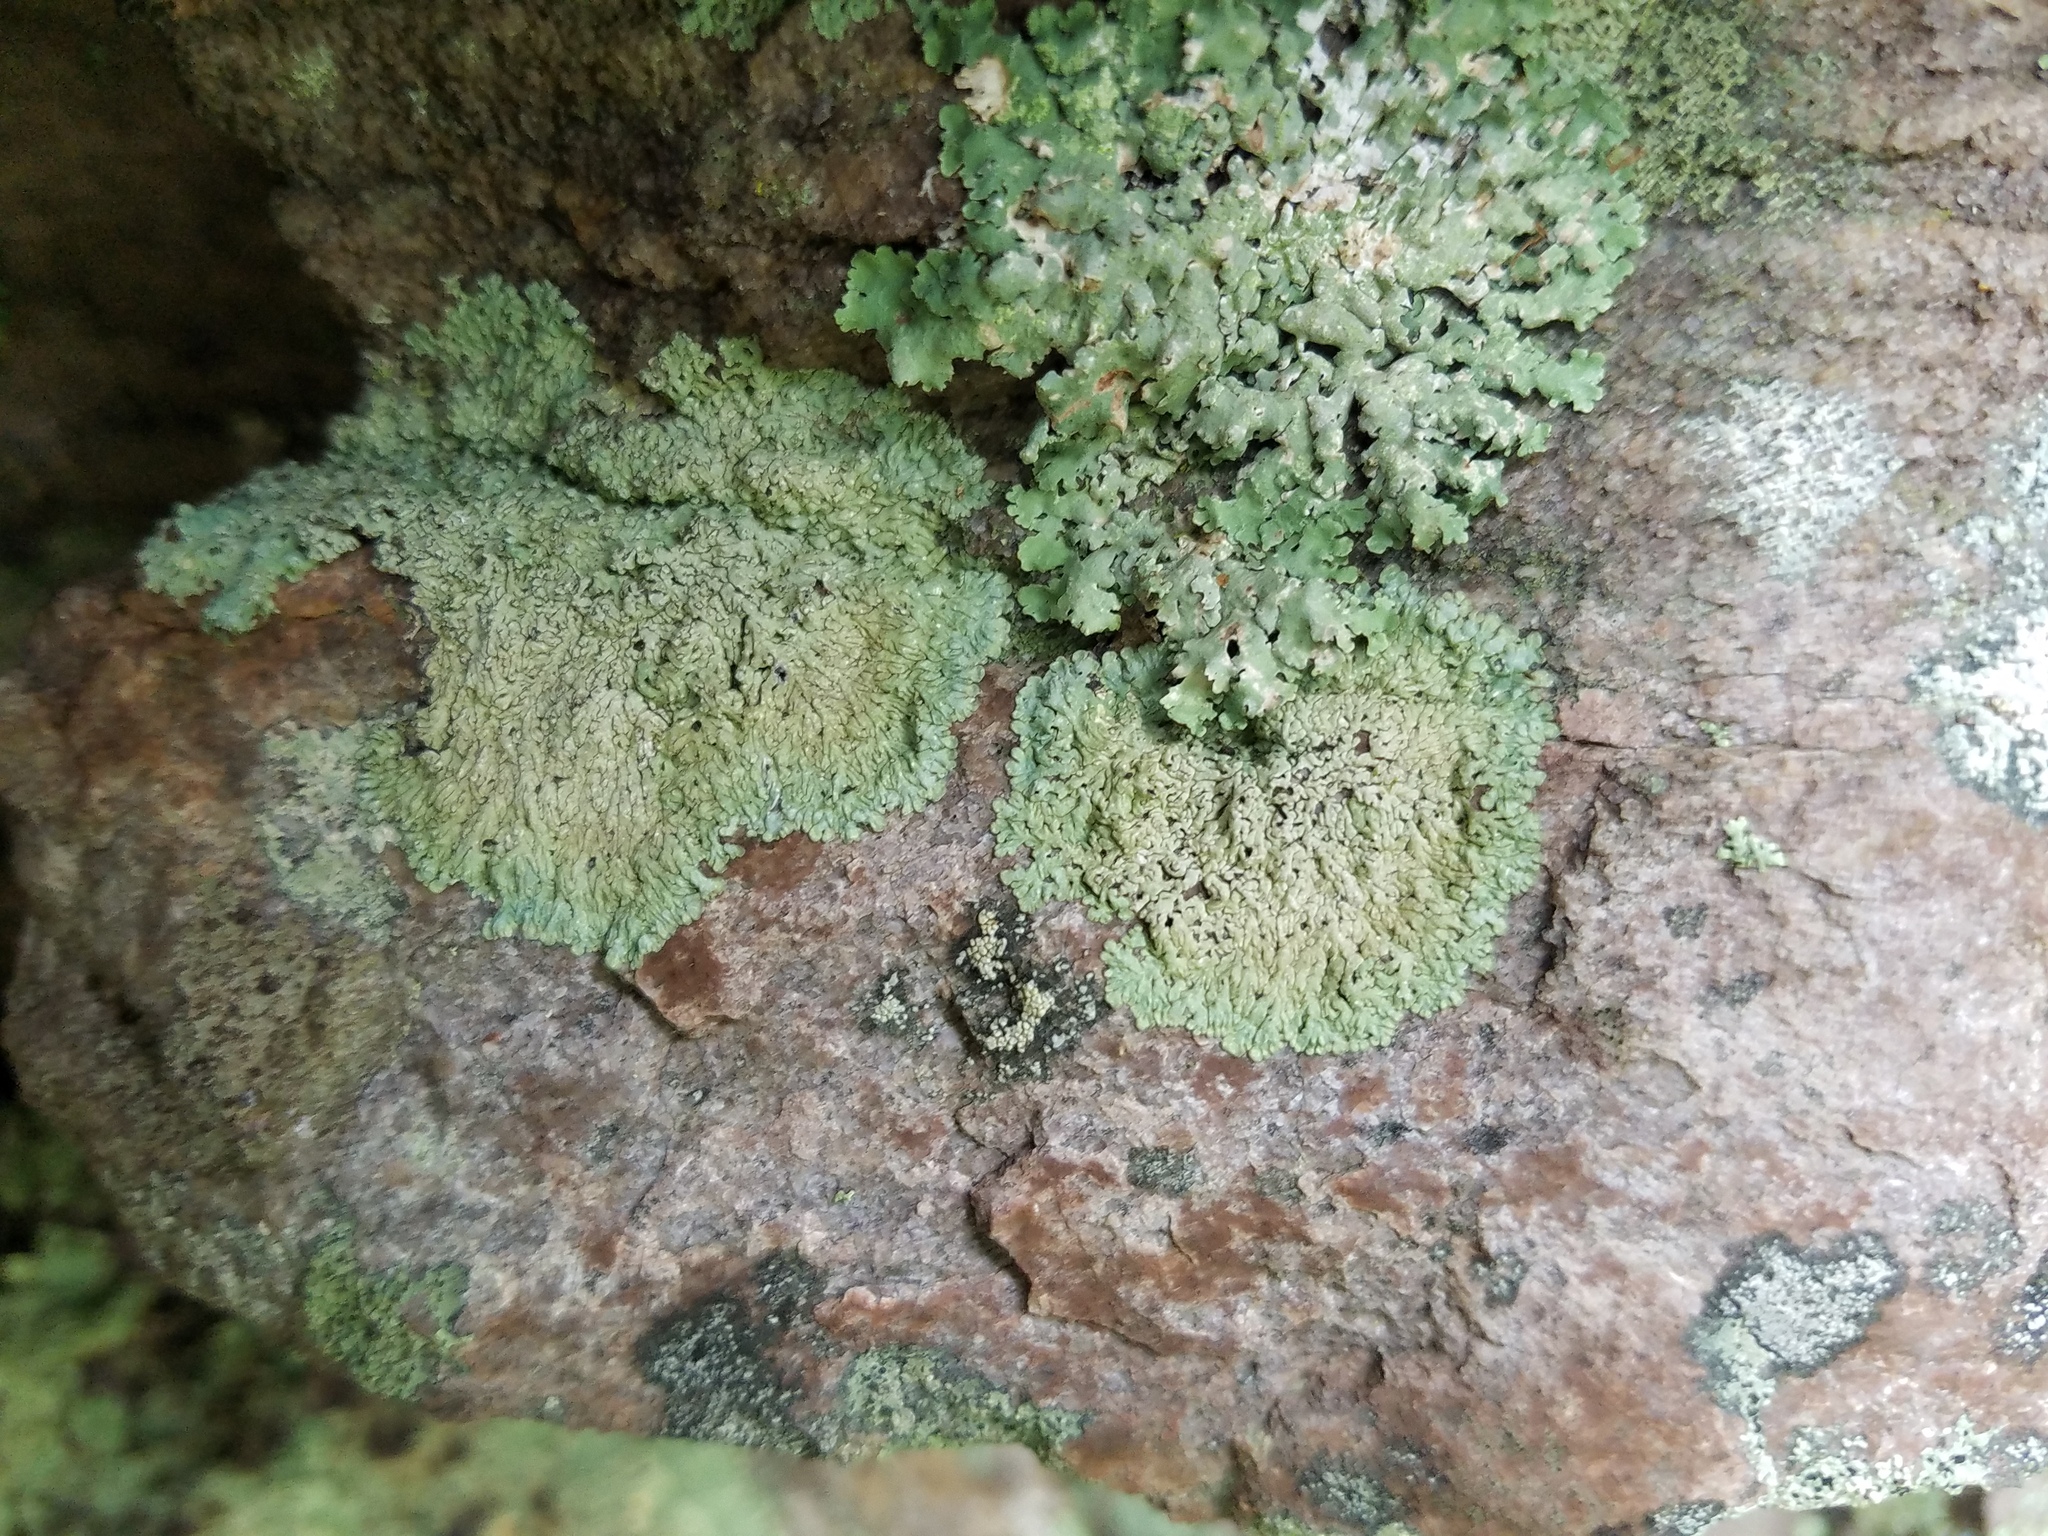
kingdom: Fungi
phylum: Ascomycota
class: Lecanoromycetes
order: Caliciales
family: Caliciaceae
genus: Dirinaria
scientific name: Dirinaria frostii
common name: Frosty medallion lichen
